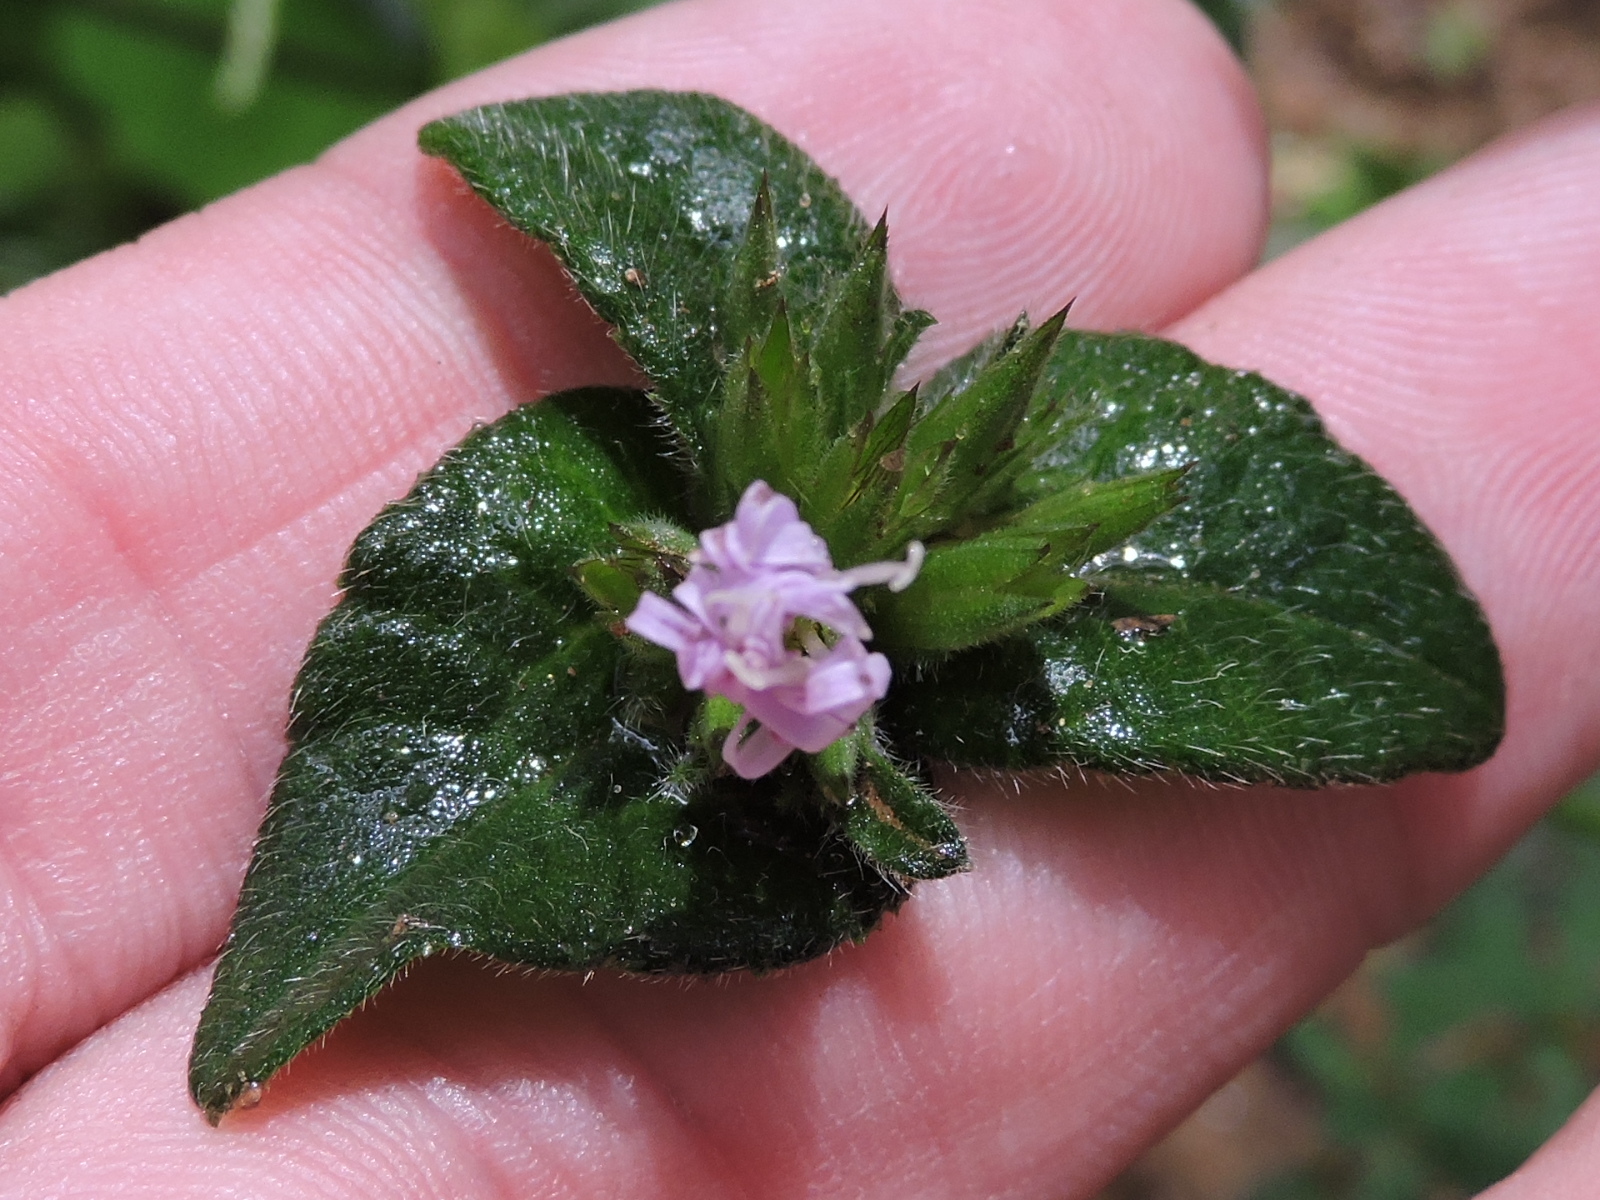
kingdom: Plantae
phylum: Tracheophyta
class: Magnoliopsida
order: Asterales
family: Asteraceae
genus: Elephantopus
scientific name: Elephantopus tomentosus
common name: Tobacco-weed
